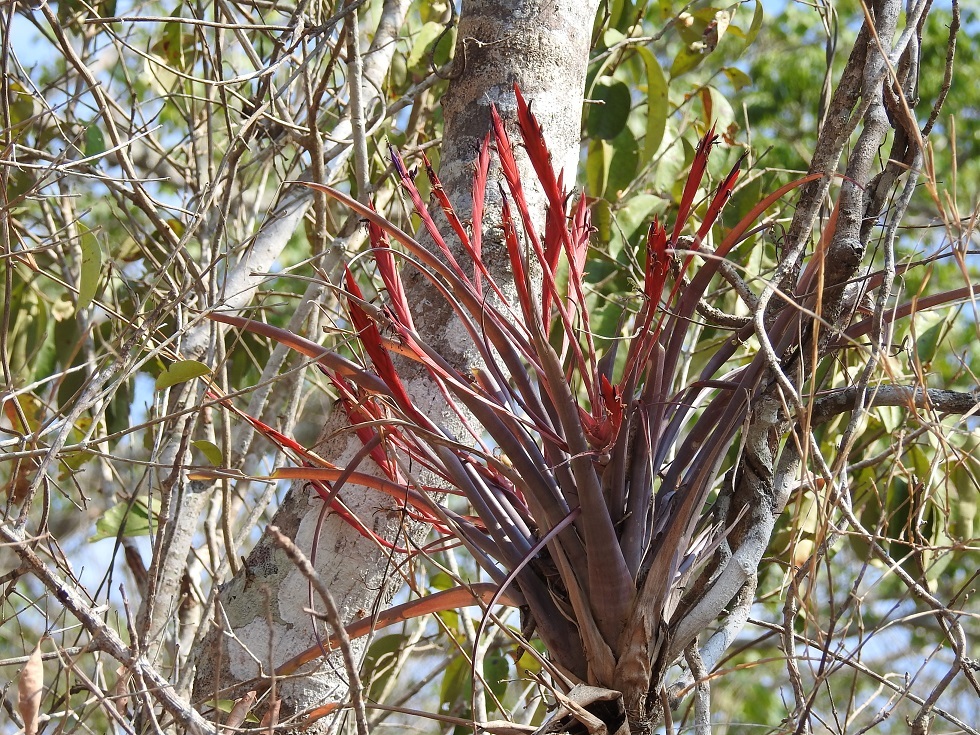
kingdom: Plantae
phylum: Tracheophyta
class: Liliopsida
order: Poales
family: Bromeliaceae
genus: Tillandsia
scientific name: Tillandsia flabellata
